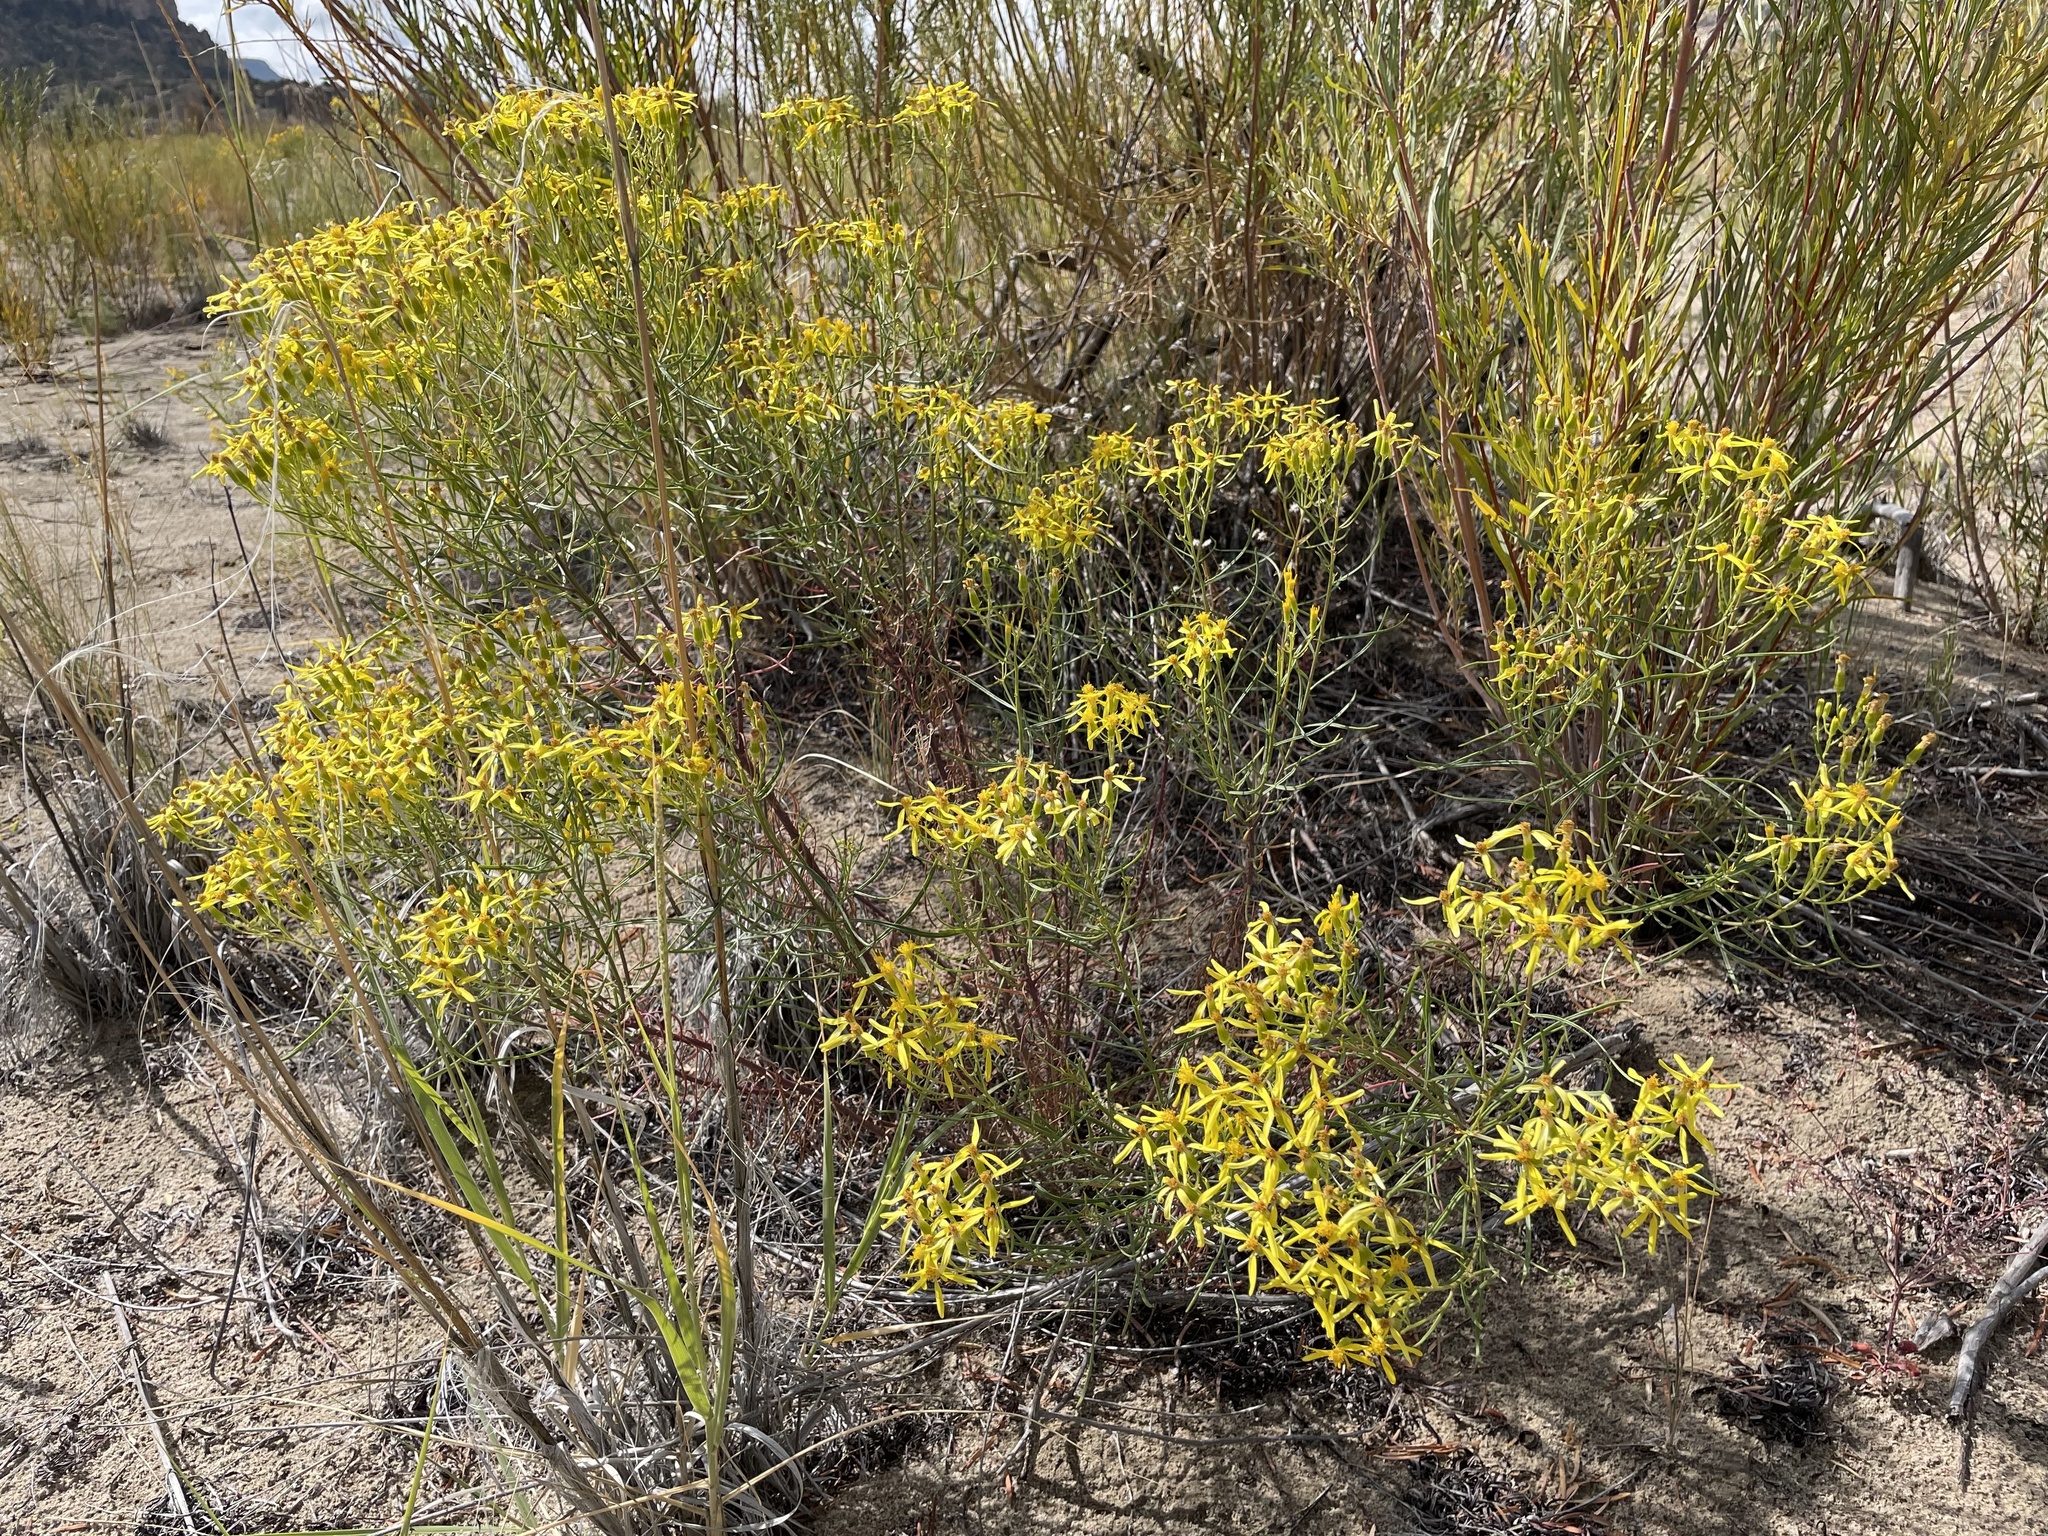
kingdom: Plantae
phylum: Tracheophyta
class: Magnoliopsida
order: Asterales
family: Asteraceae
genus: Senecio
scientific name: Senecio spartioides
